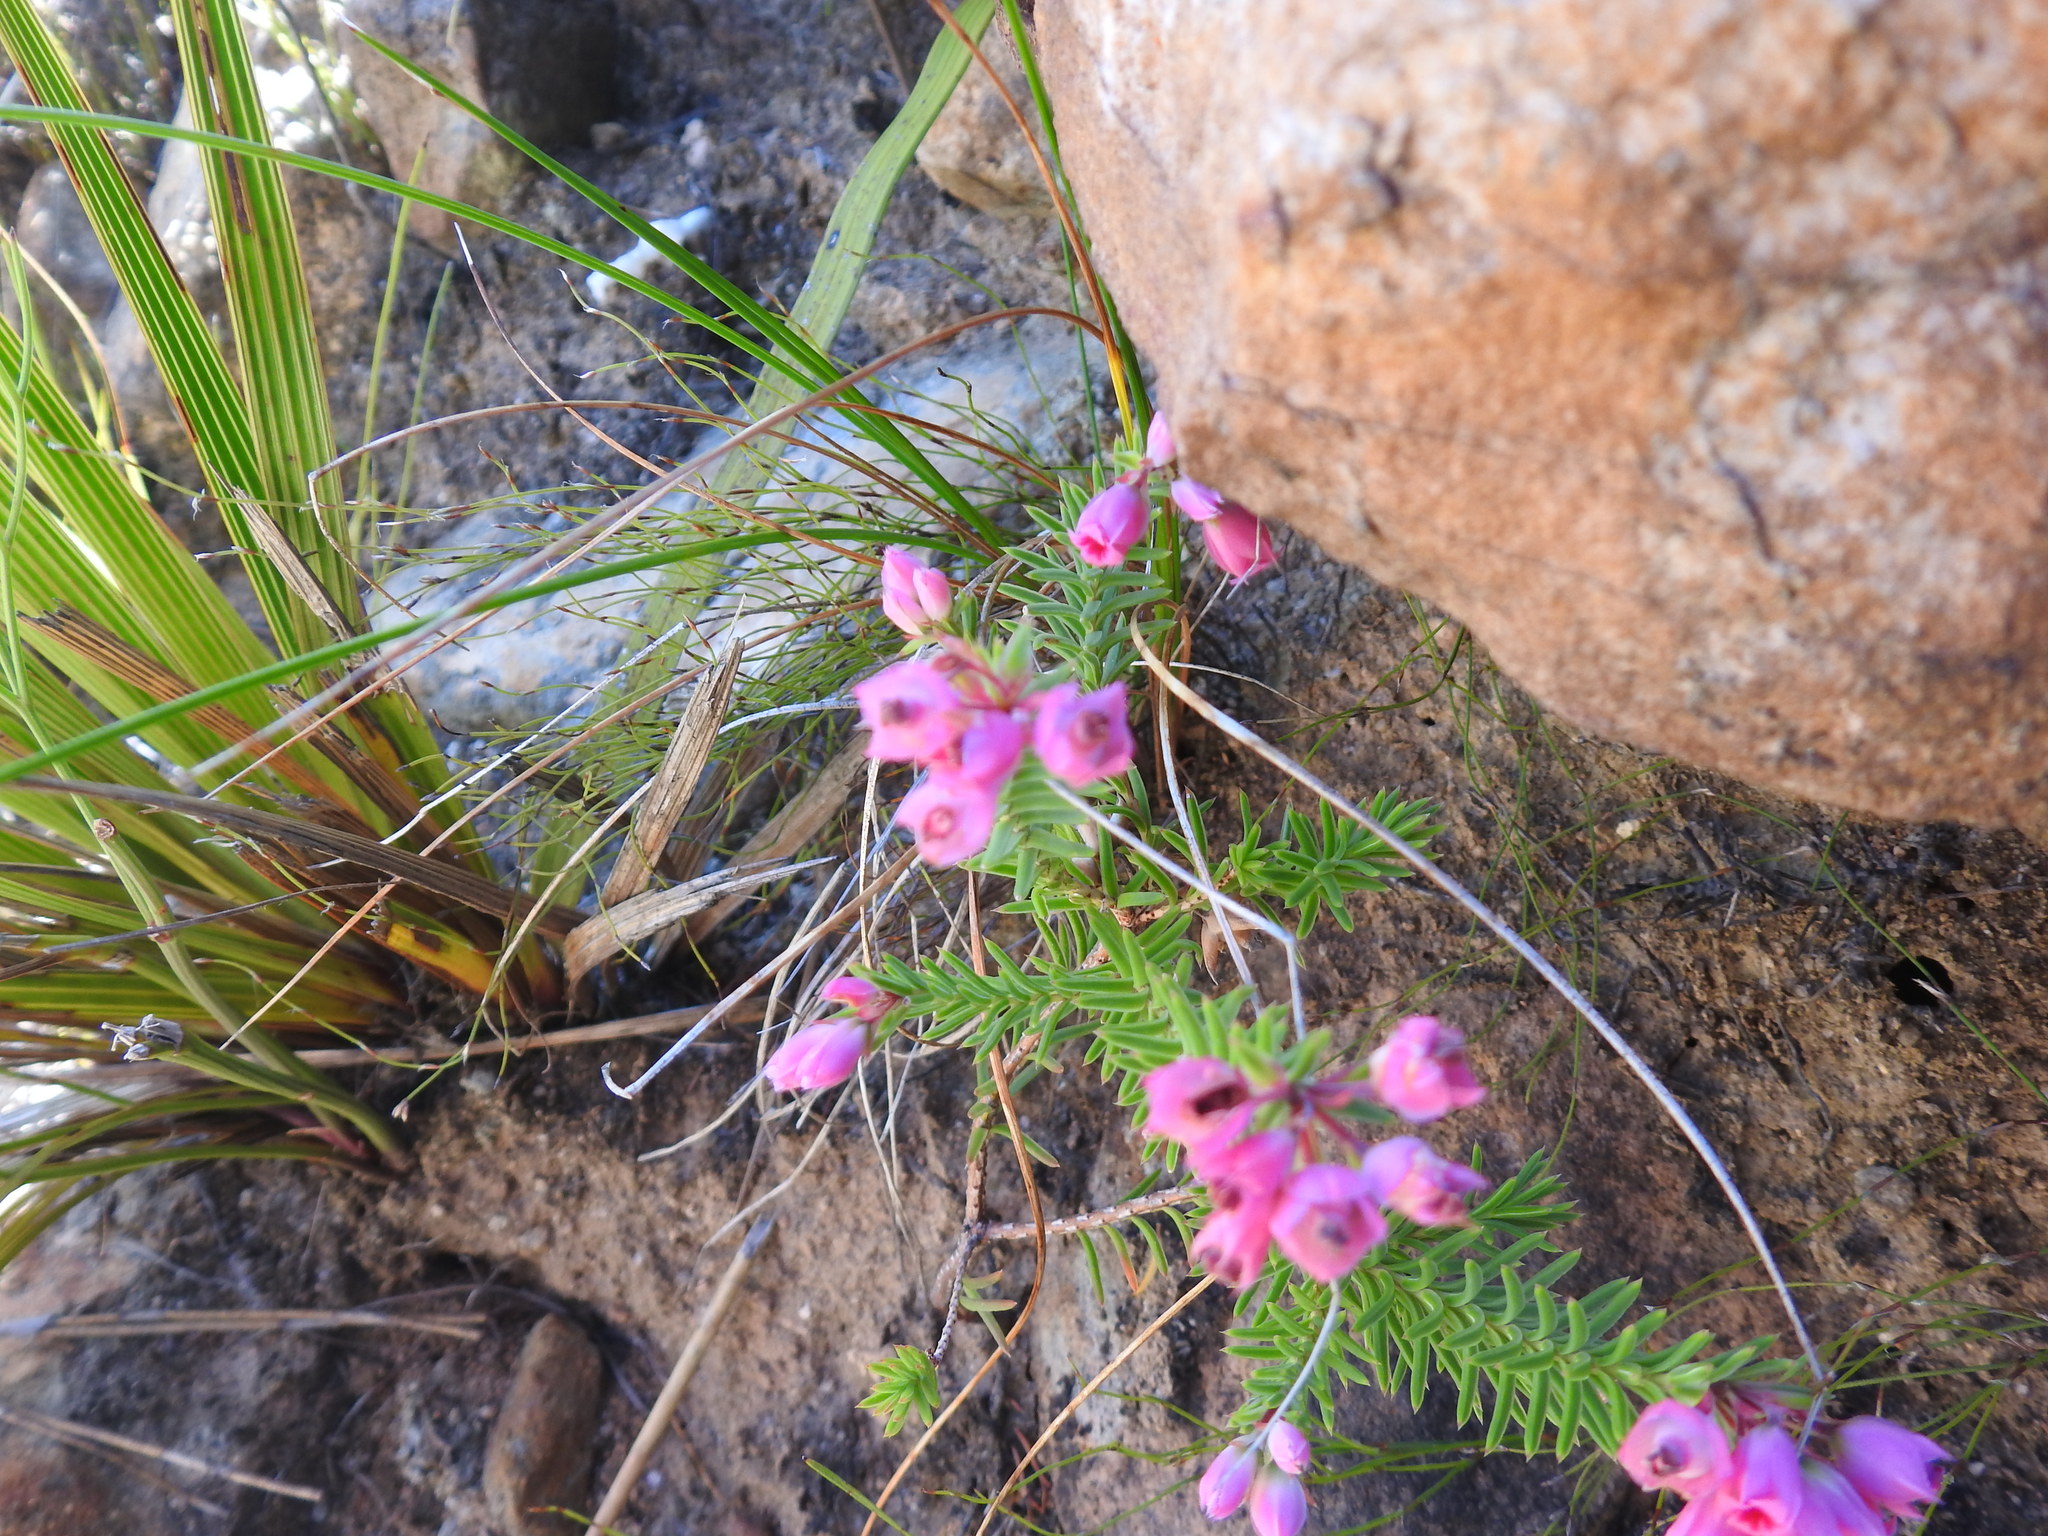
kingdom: Plantae
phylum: Tracheophyta
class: Magnoliopsida
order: Ericales
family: Ericaceae
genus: Erica
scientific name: Erica taxifolia
